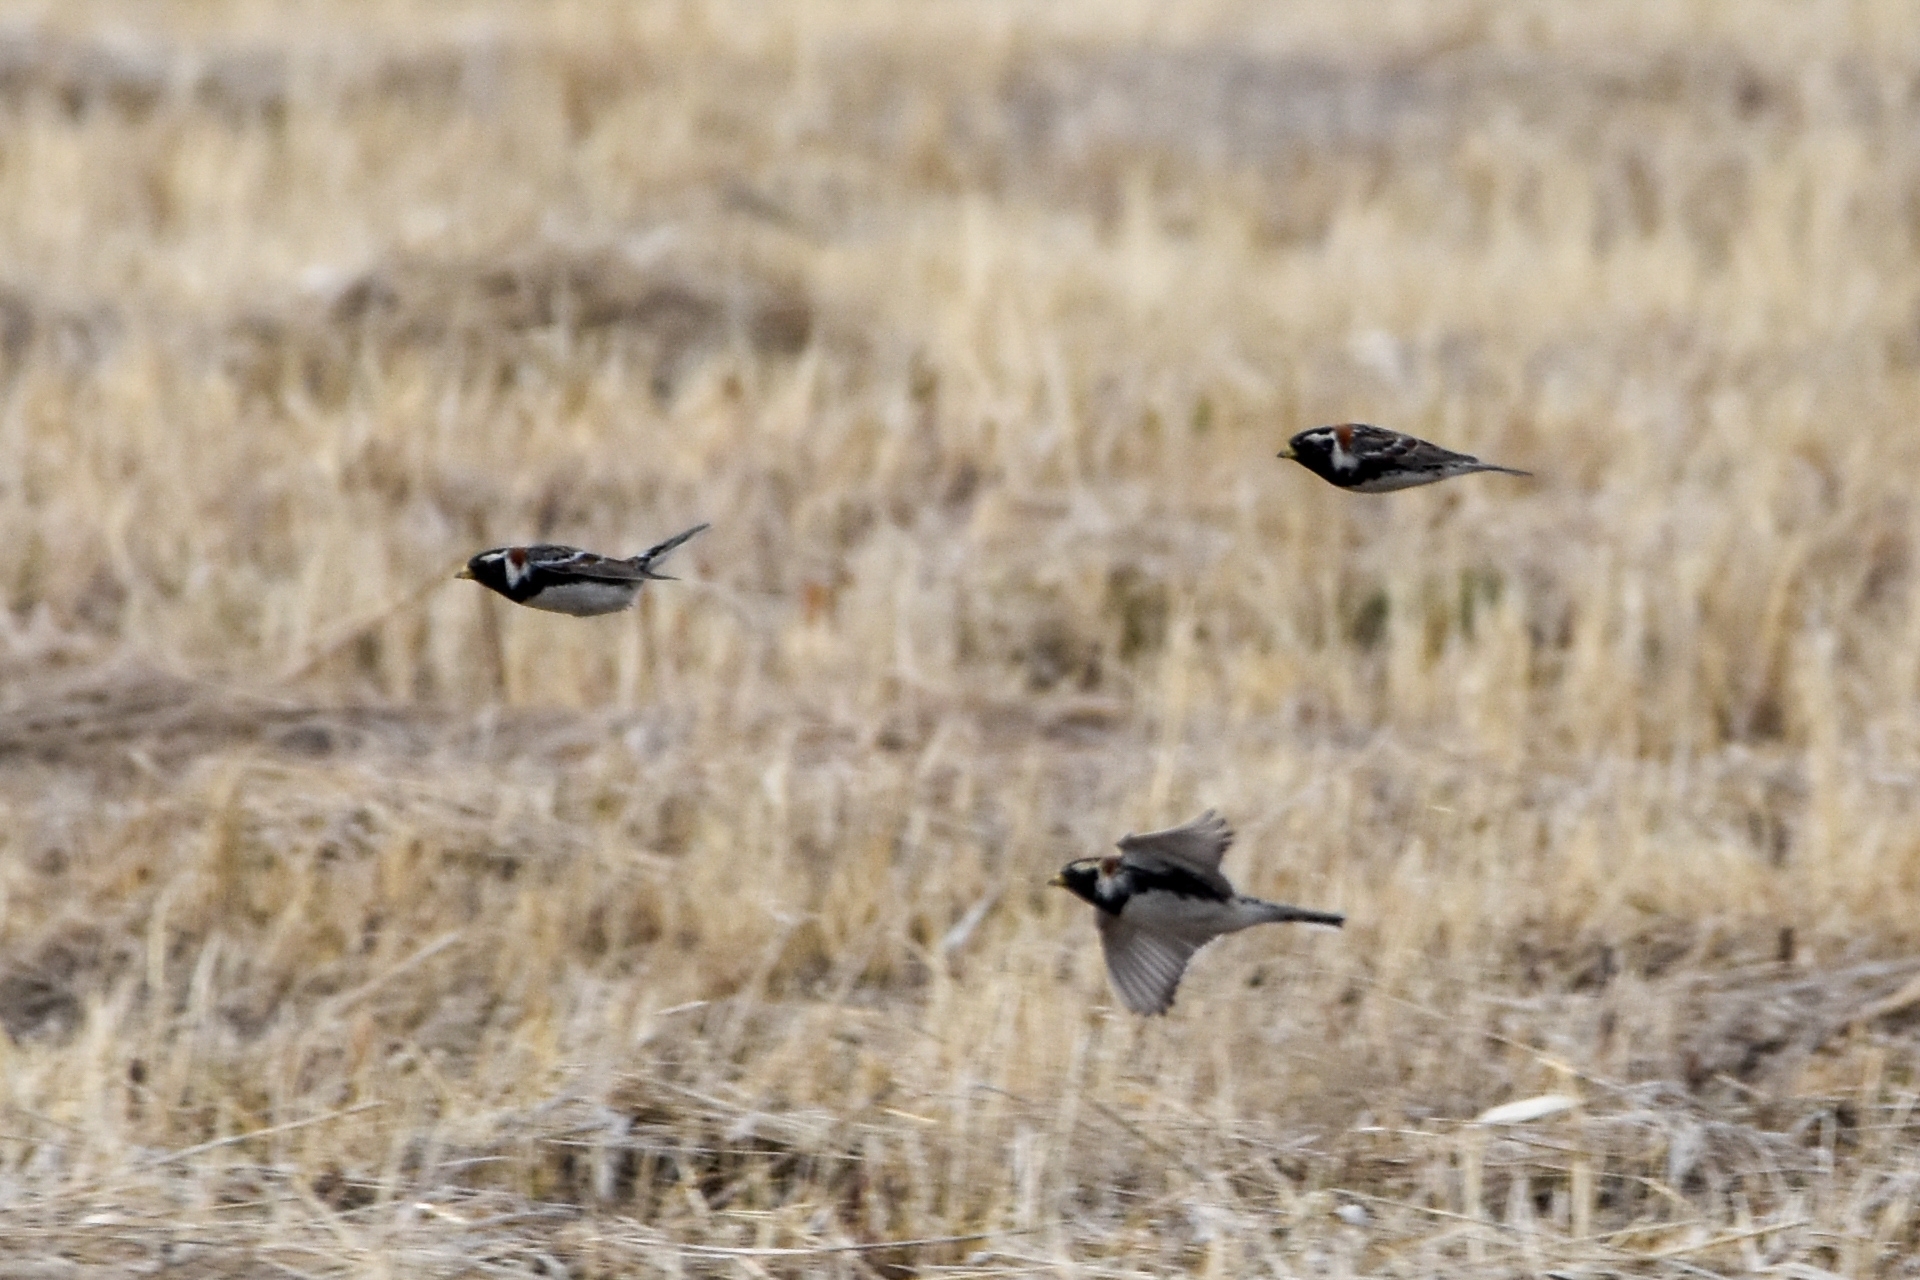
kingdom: Animalia
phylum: Chordata
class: Aves
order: Passeriformes
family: Calcariidae
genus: Calcarius
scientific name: Calcarius lapponicus
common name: Lapland longspur
